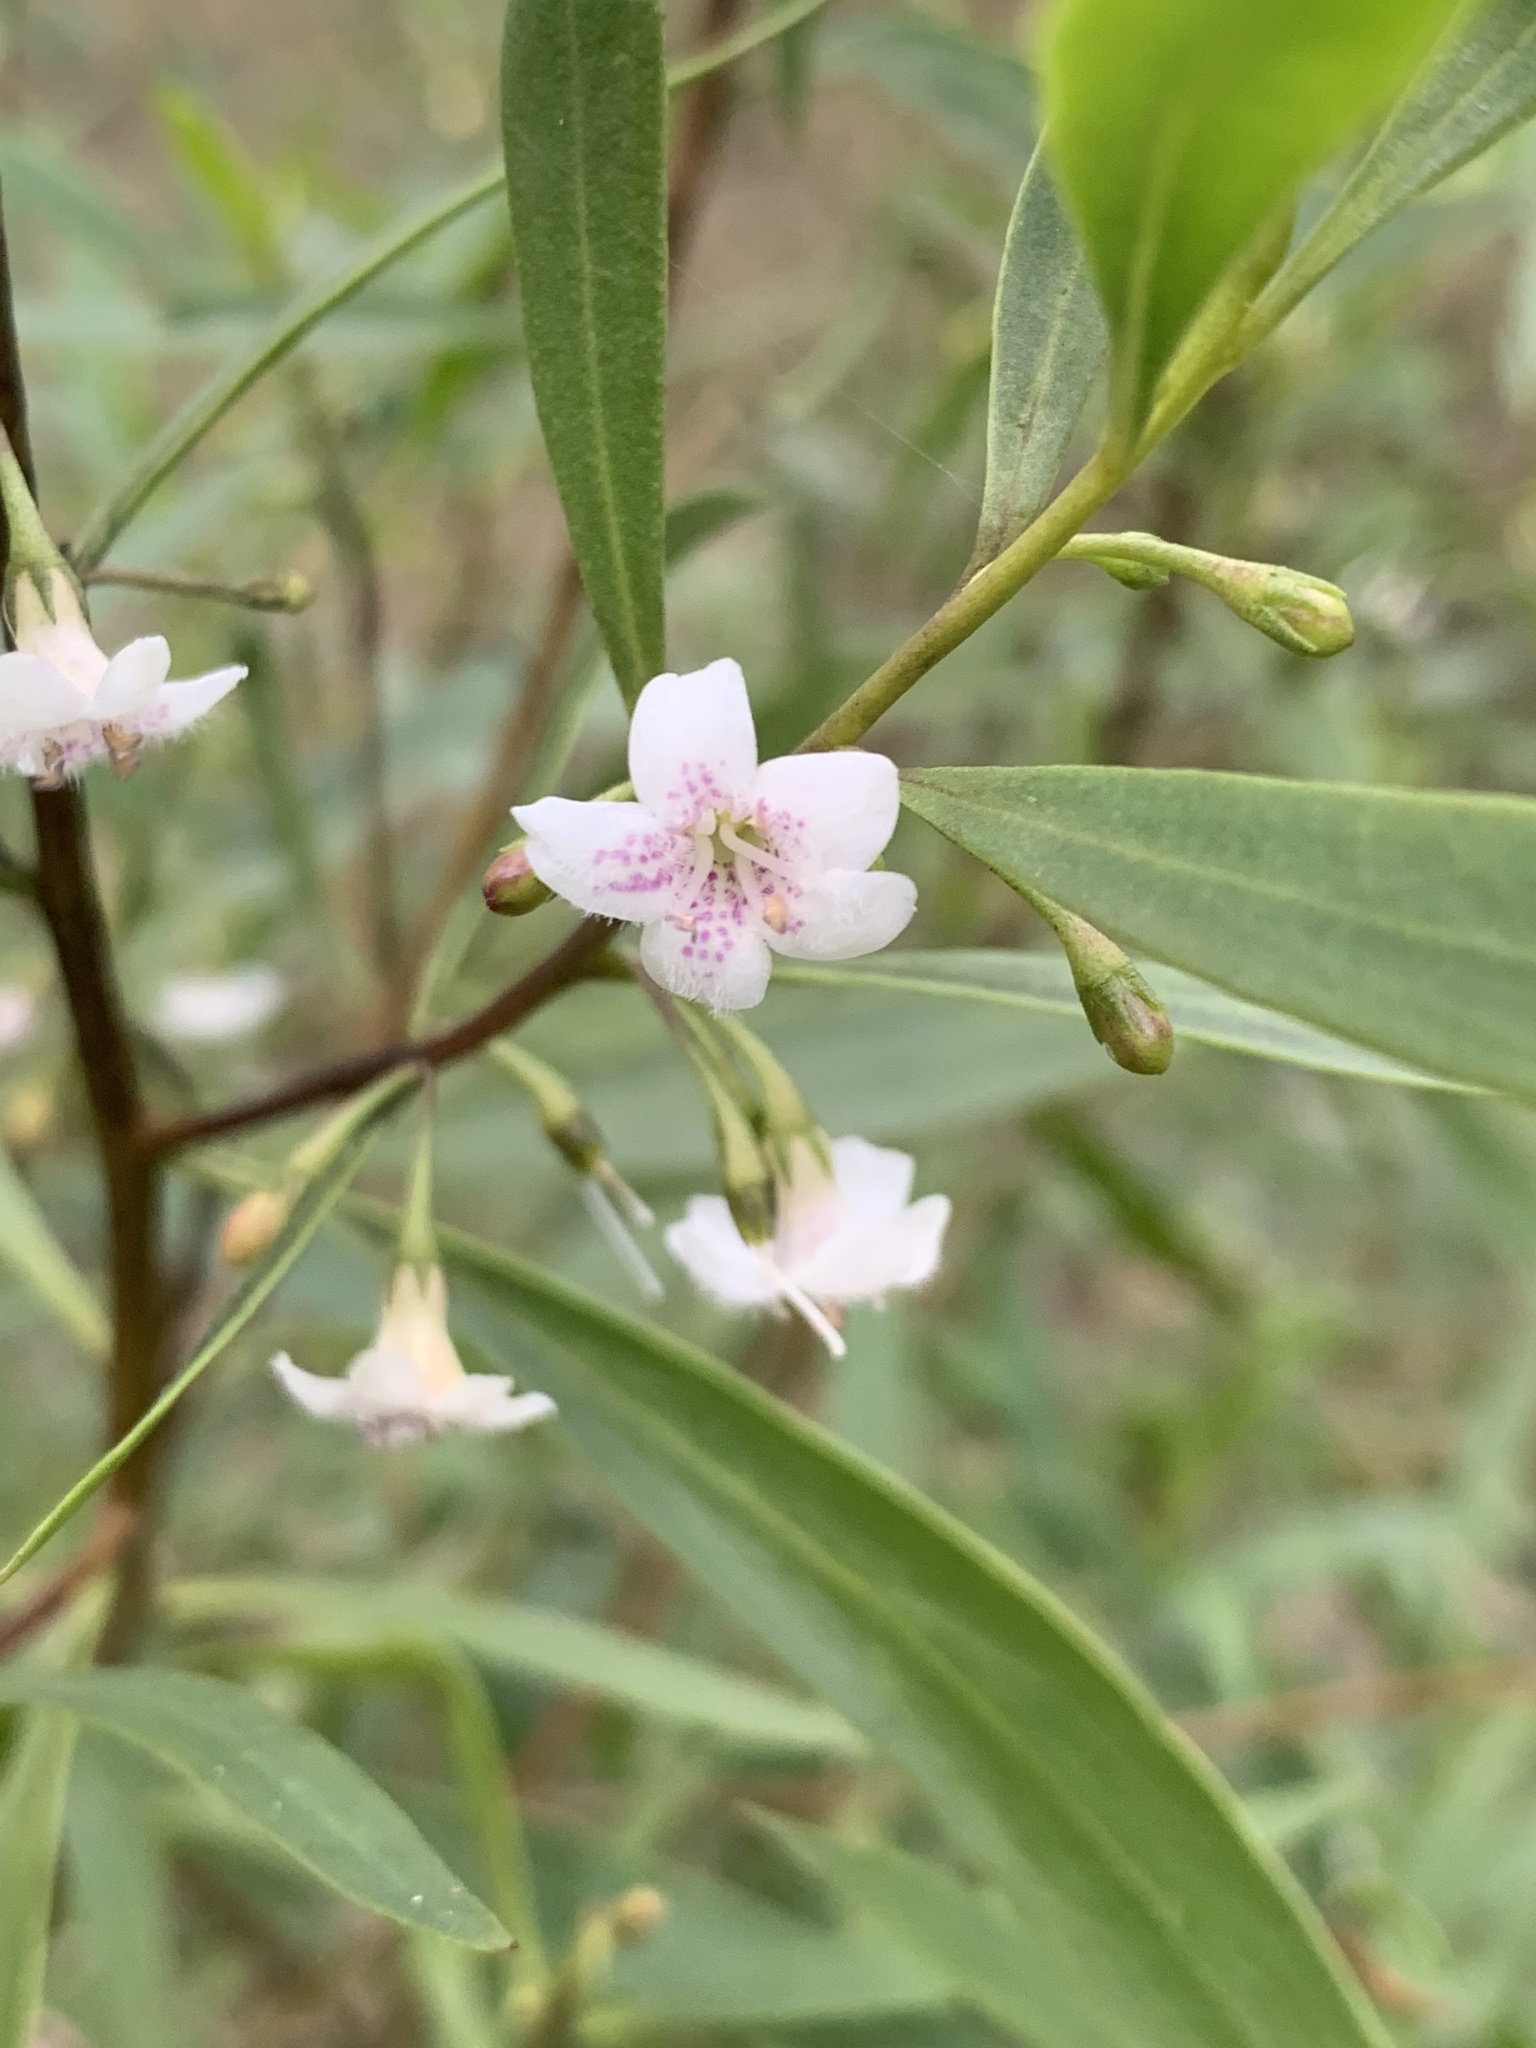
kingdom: Plantae
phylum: Tracheophyta
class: Magnoliopsida
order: Lamiales
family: Scrophulariaceae
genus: Myoporum
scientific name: Myoporum montanum
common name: Waterbush
